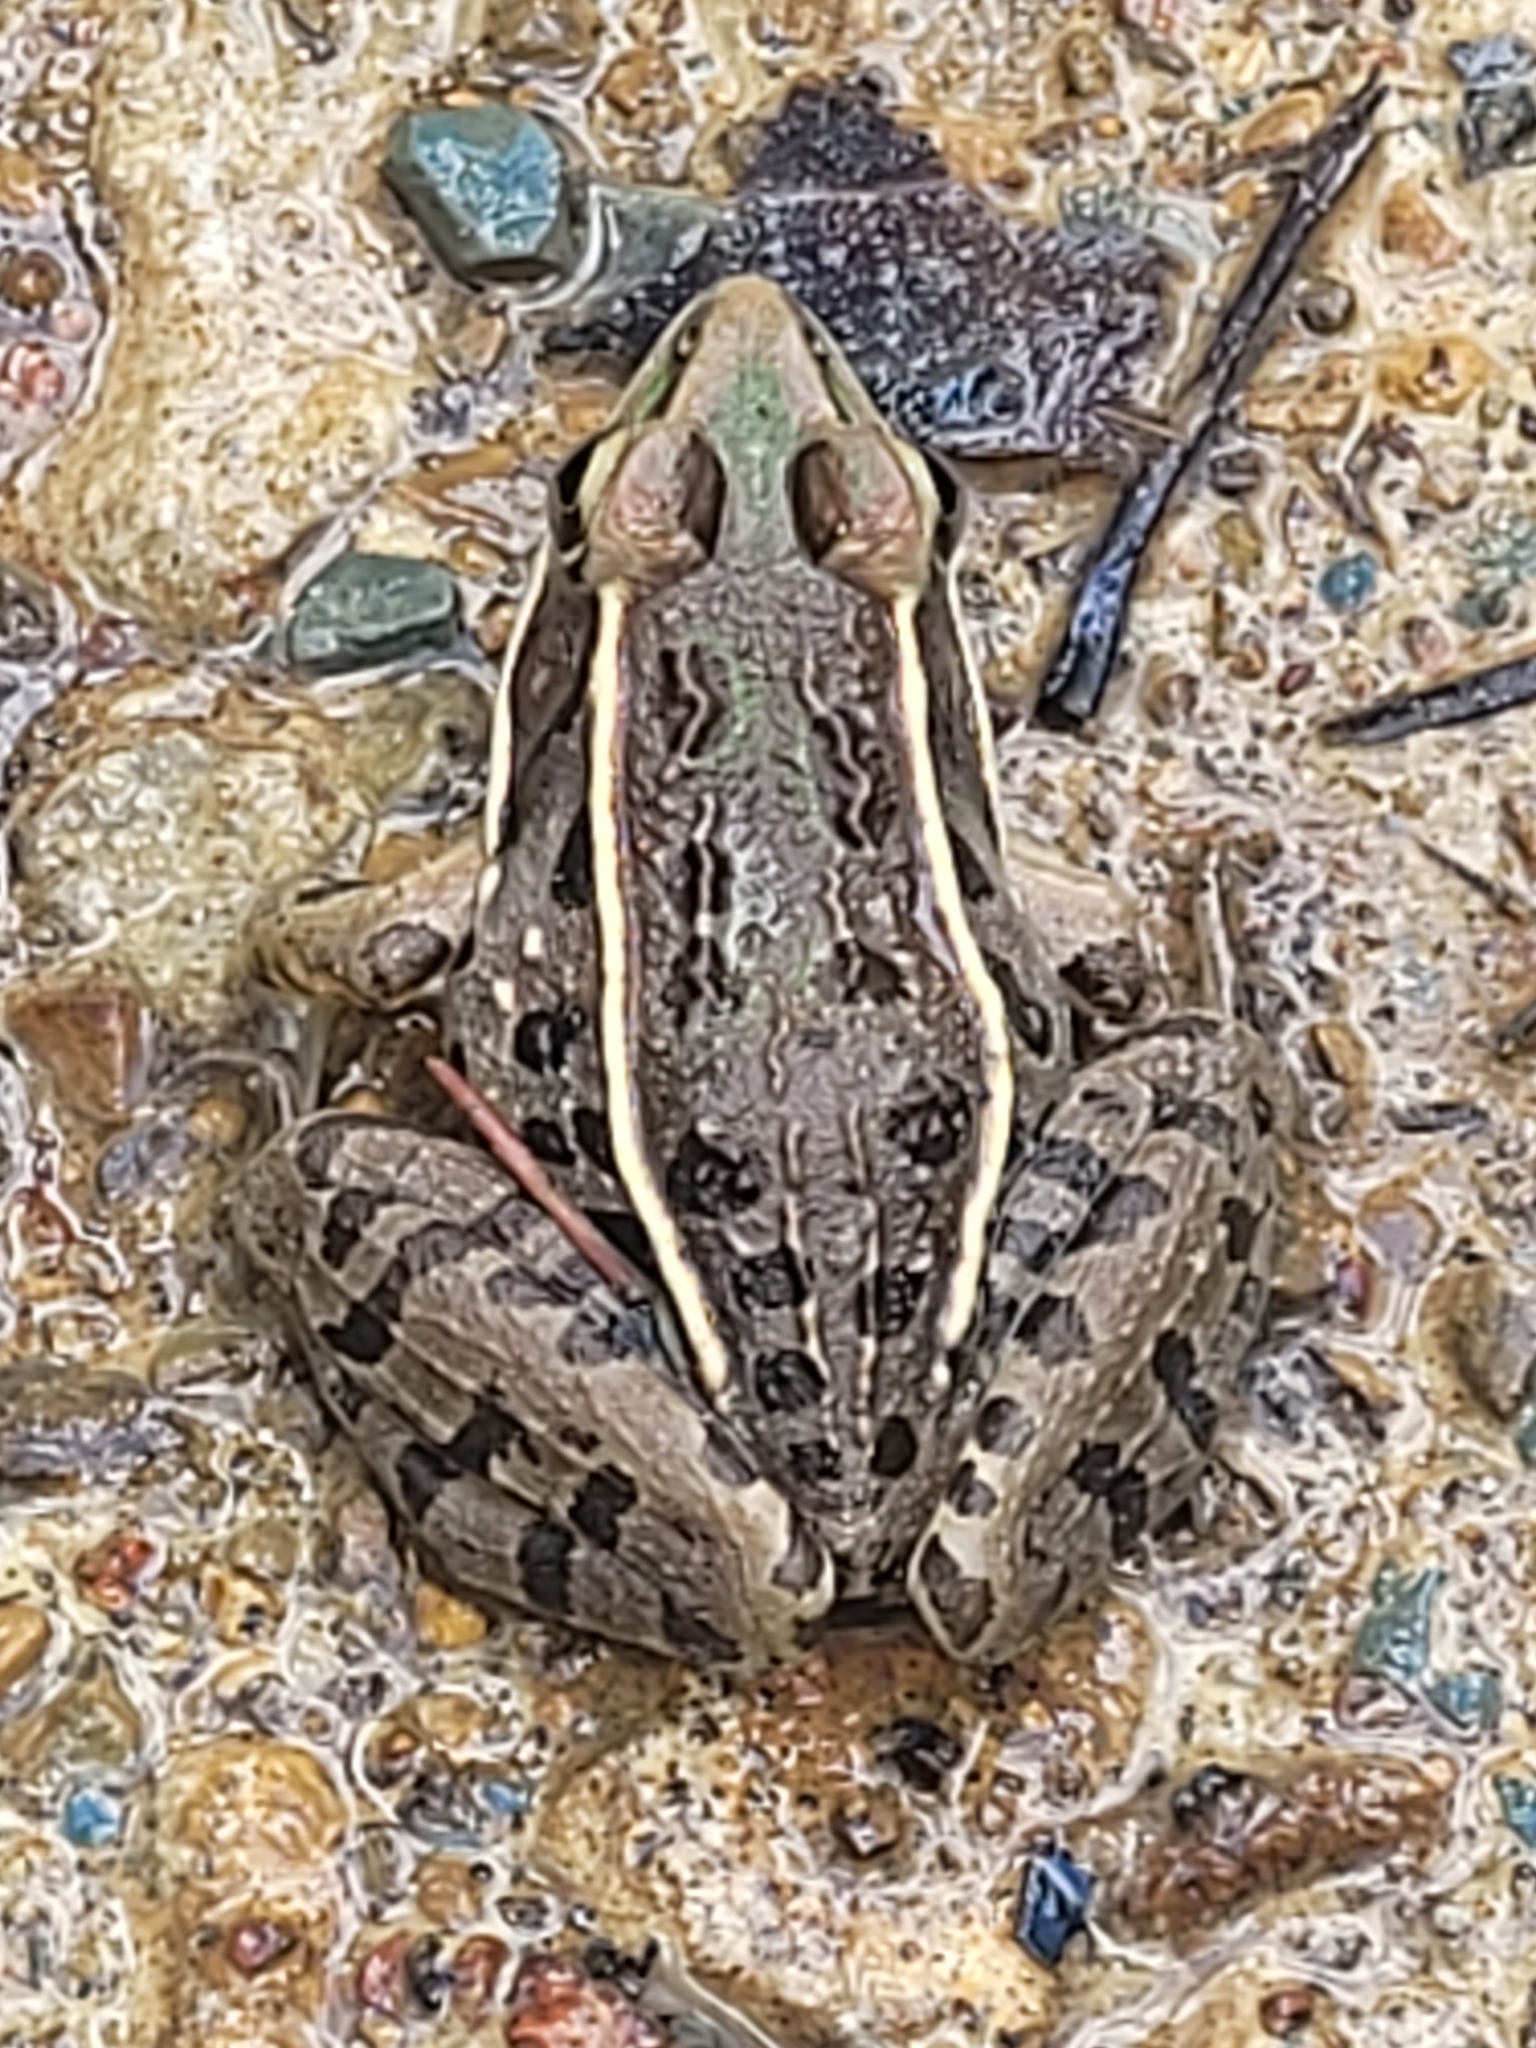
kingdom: Animalia
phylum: Chordata
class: Amphibia
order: Anura
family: Ranidae
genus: Lithobates
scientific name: Lithobates sphenocephalus
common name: Southern leopard frog
